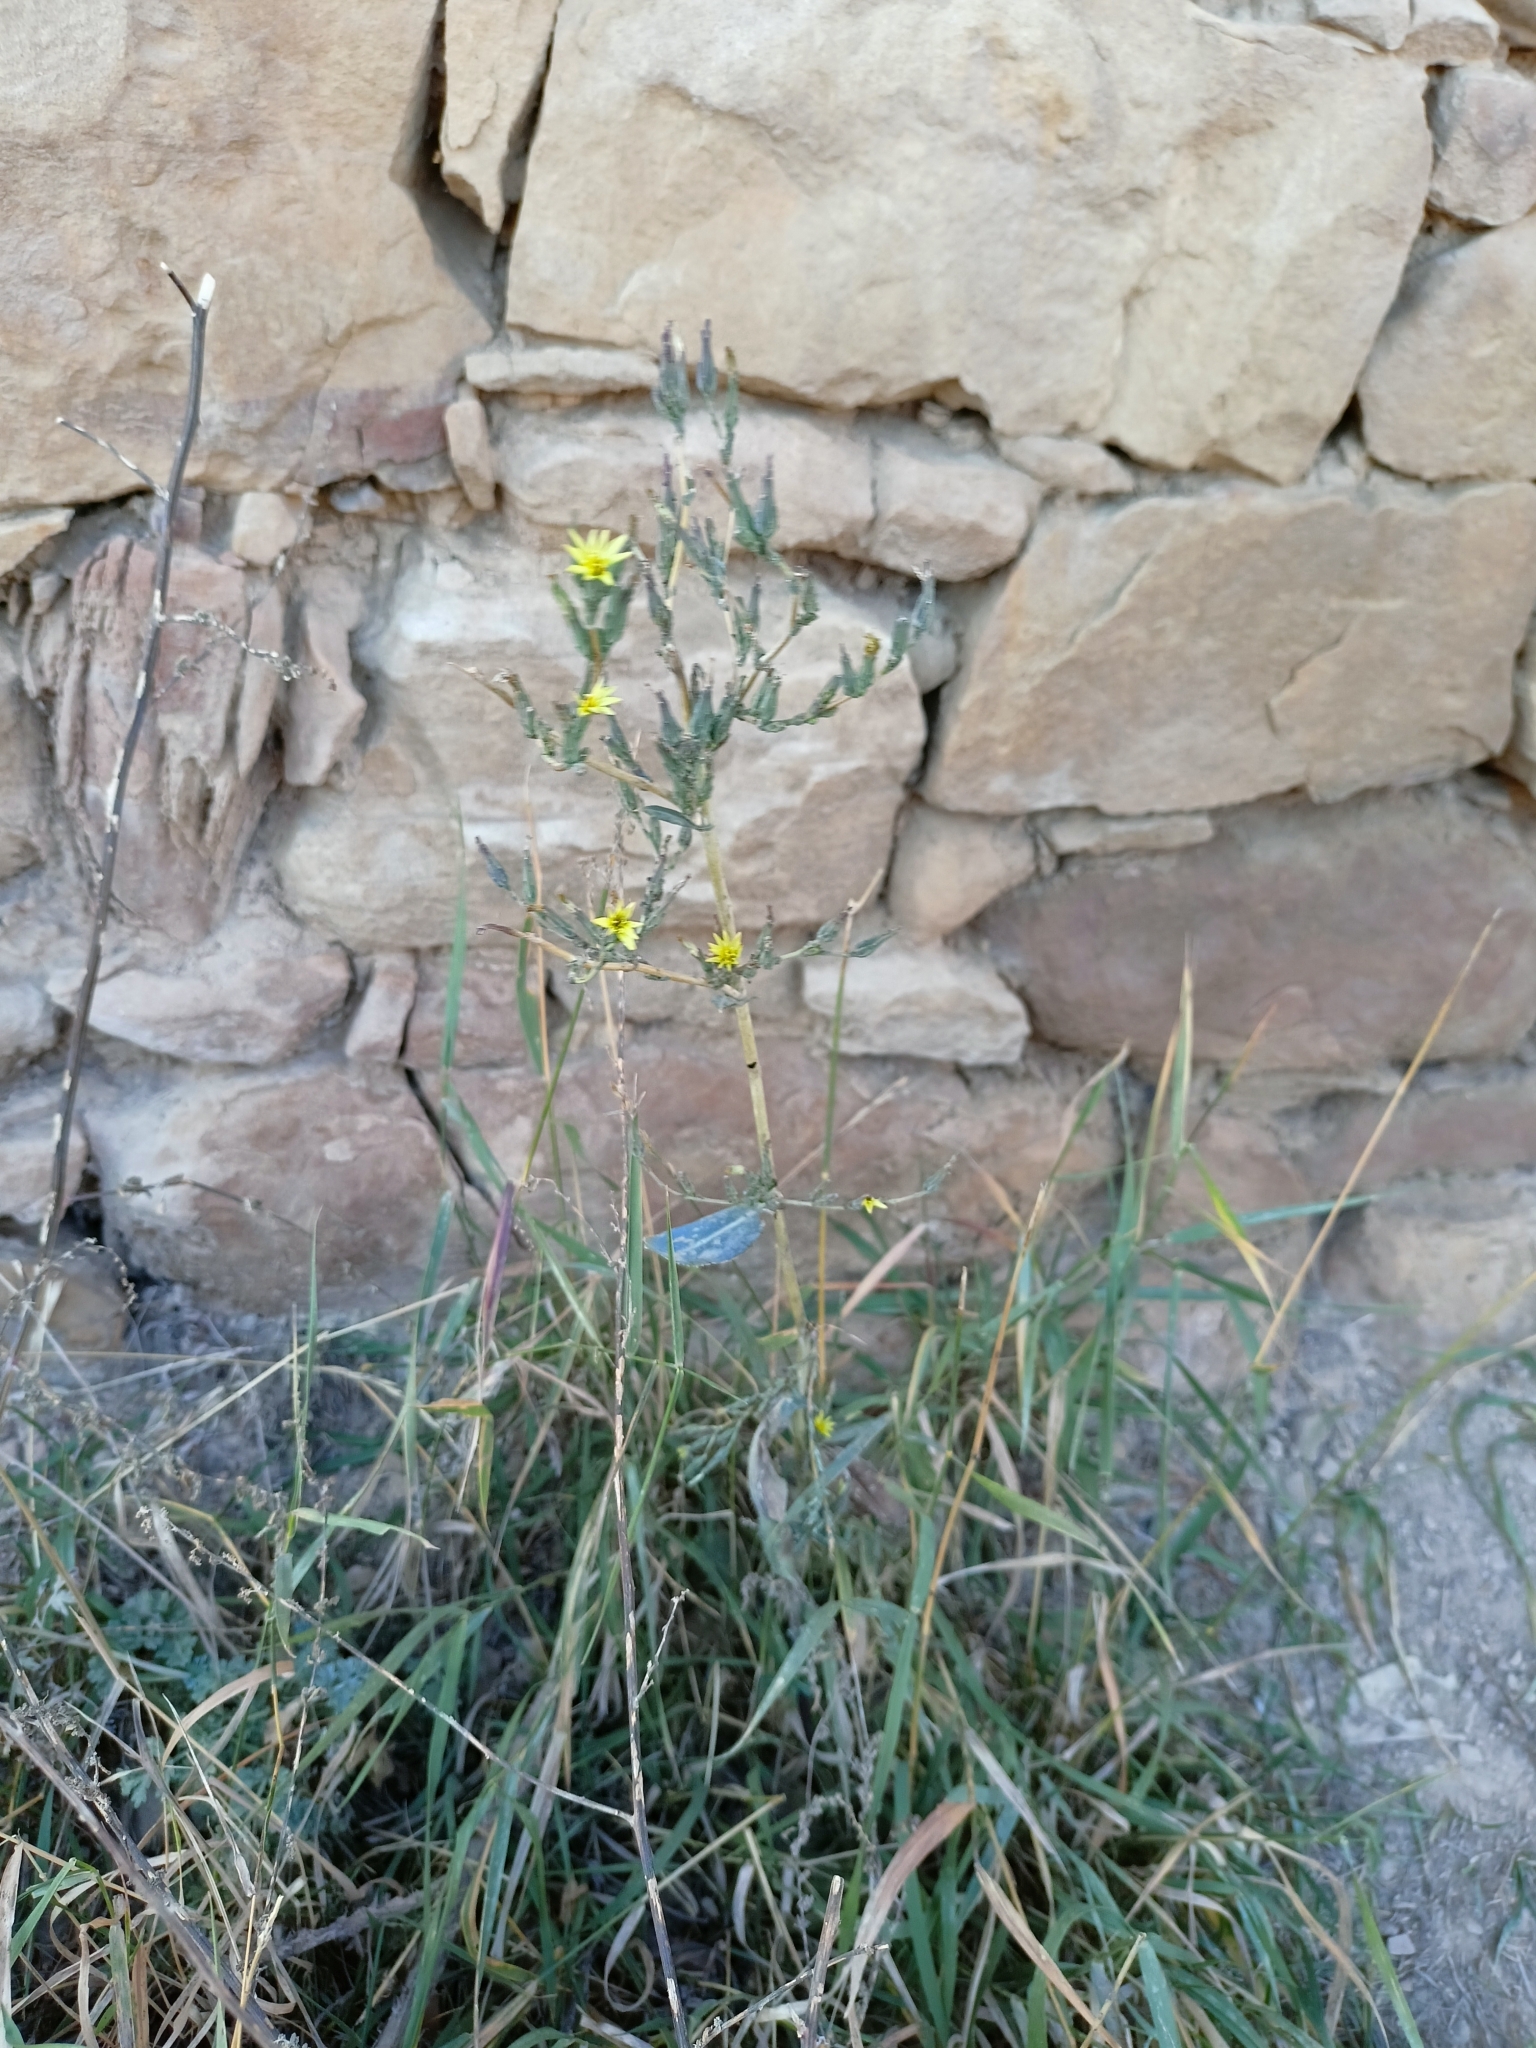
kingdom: Plantae
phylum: Tracheophyta
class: Magnoliopsida
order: Asterales
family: Asteraceae
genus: Lactuca
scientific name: Lactuca serriola
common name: Prickly lettuce
